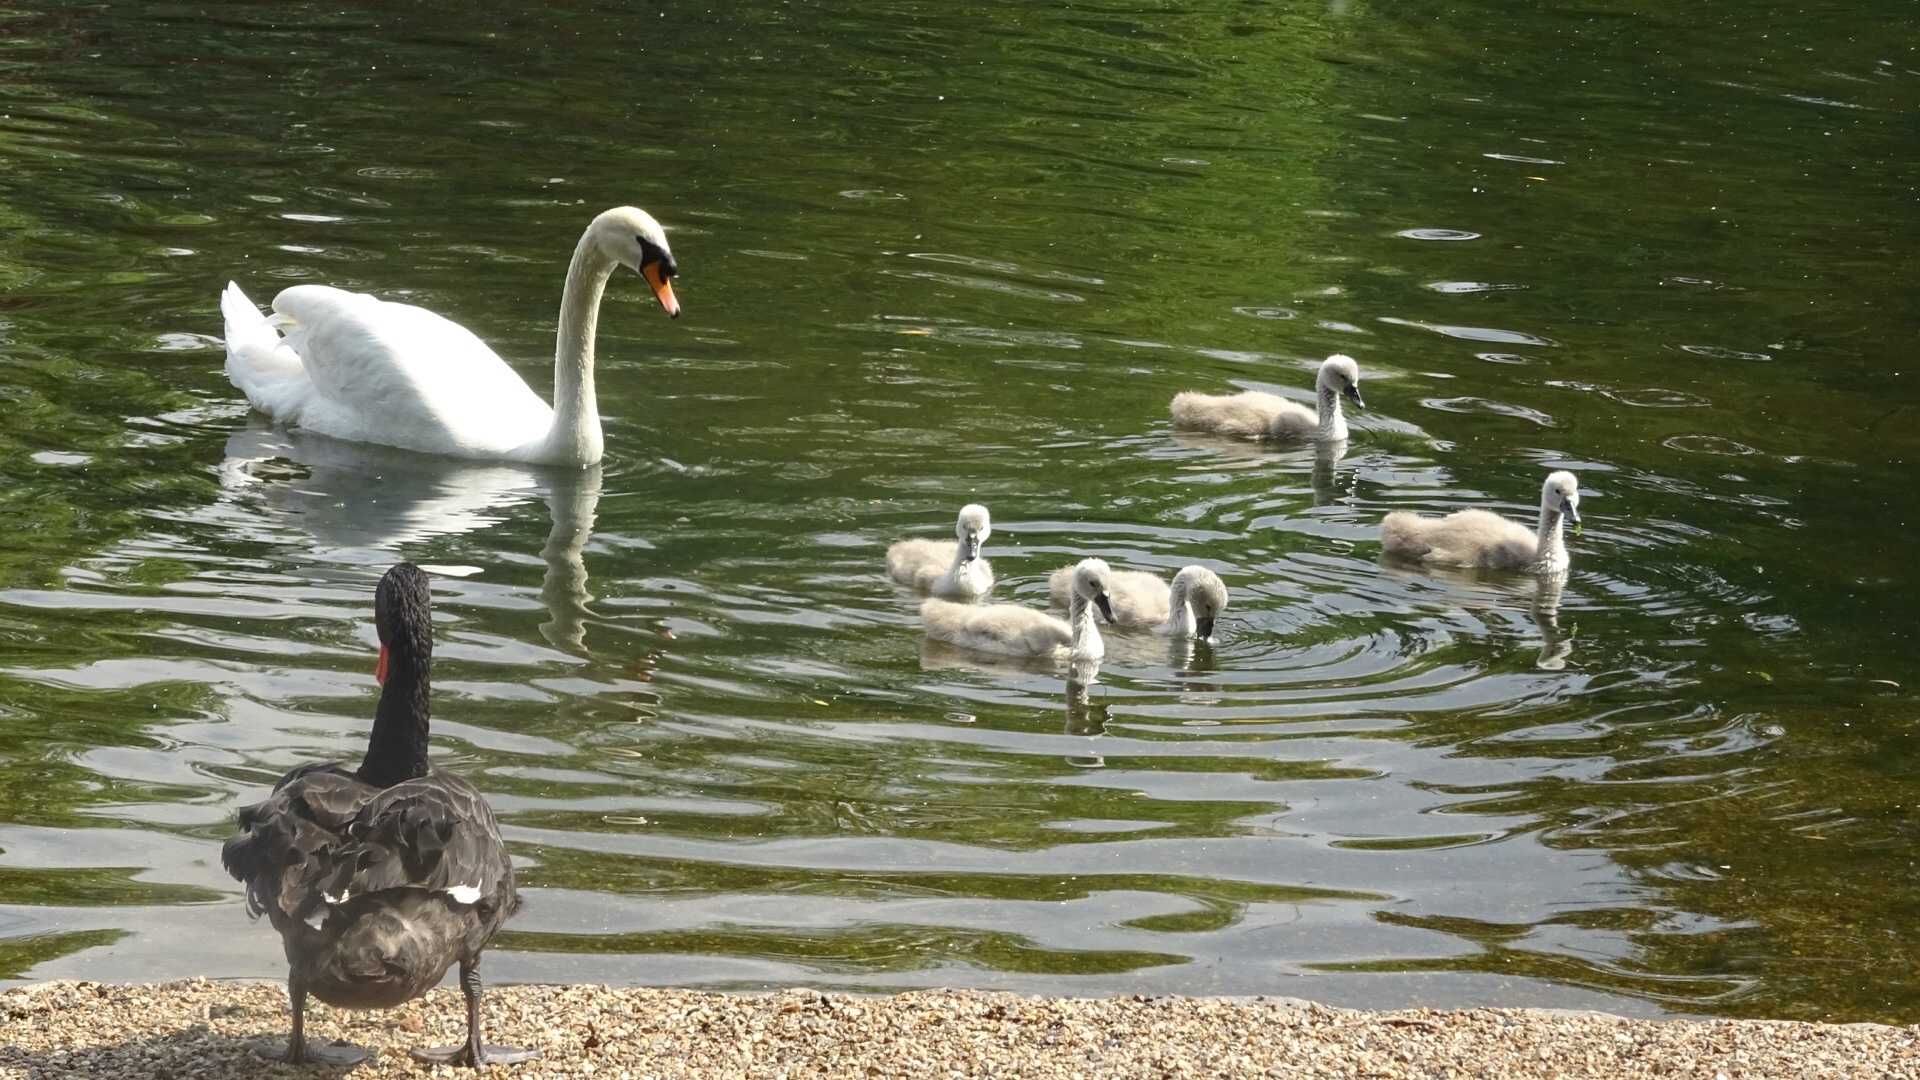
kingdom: Animalia
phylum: Chordata
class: Aves
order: Anseriformes
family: Anatidae
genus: Cygnus
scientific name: Cygnus olor
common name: Mute swan
